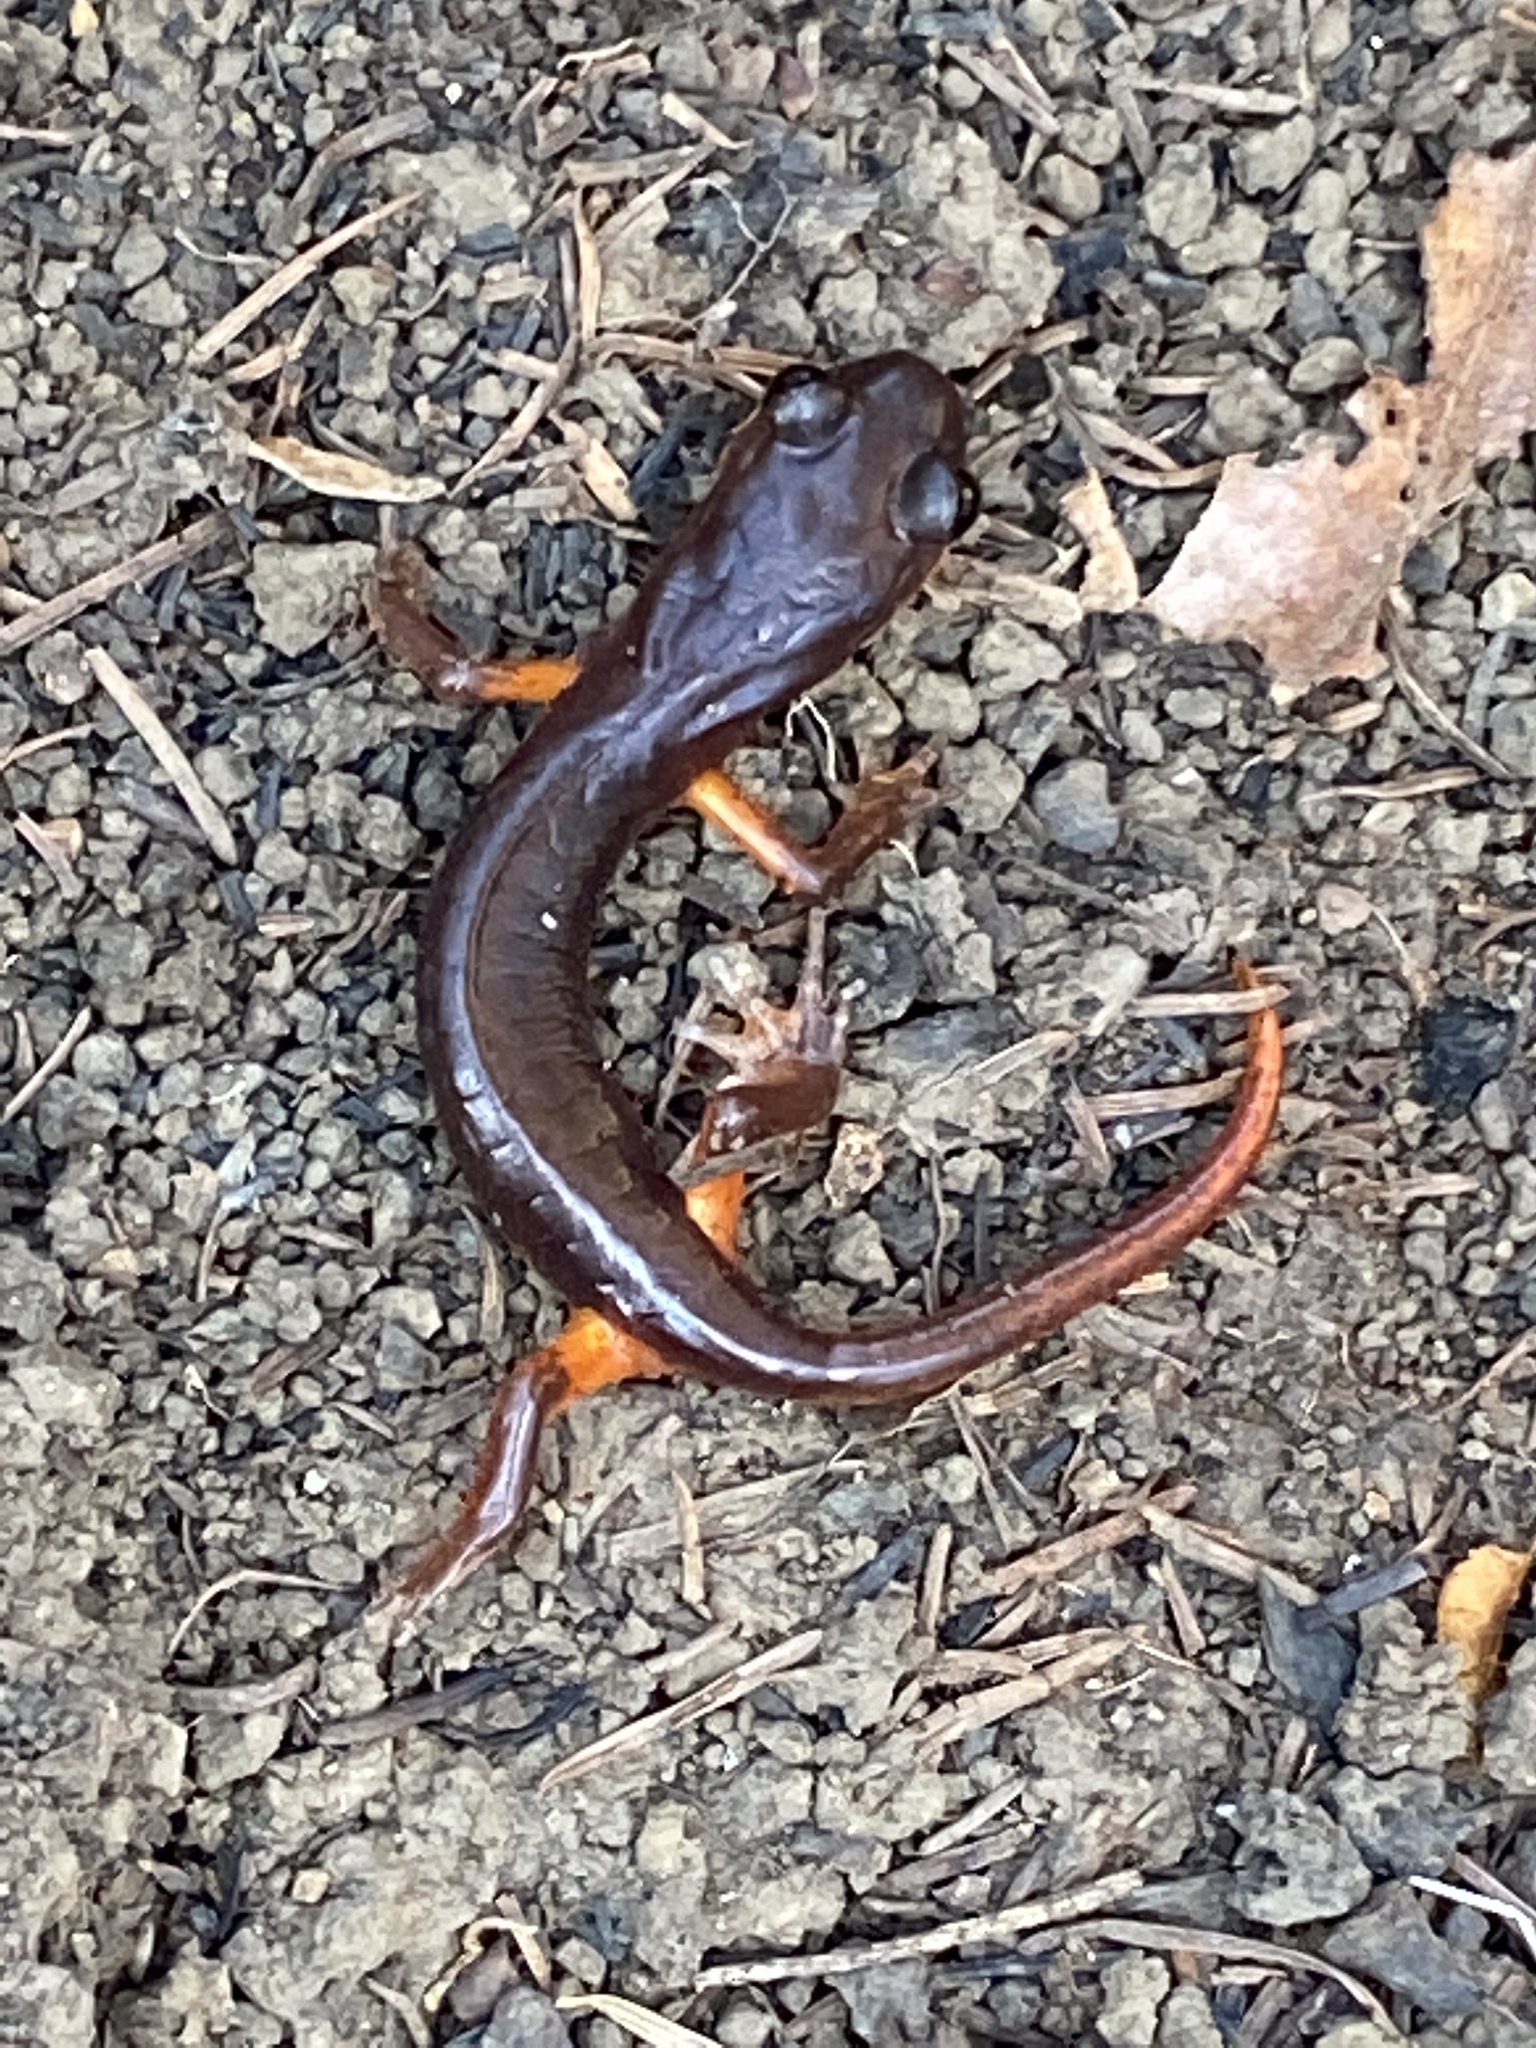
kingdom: Animalia
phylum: Chordata
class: Amphibia
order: Caudata
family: Plethodontidae
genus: Ensatina
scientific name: Ensatina eschscholtzii
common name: Ensatina
